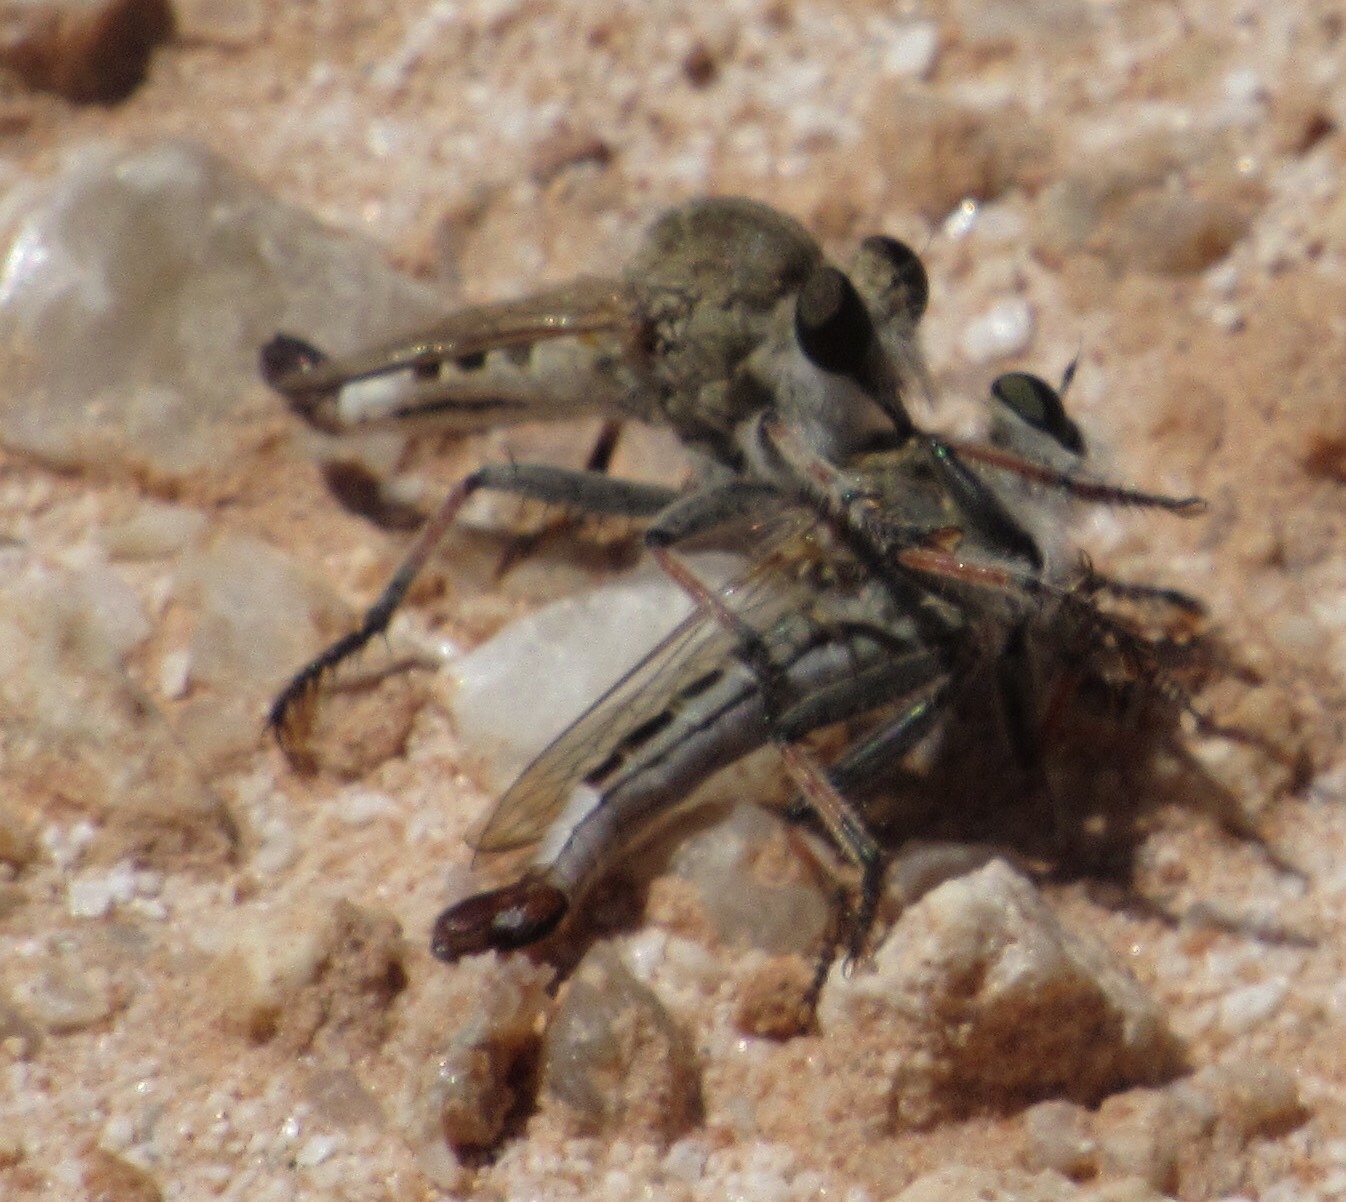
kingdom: Animalia
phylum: Arthropoda
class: Insecta
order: Diptera
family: Asilidae
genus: Efferia
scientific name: Efferia albibarbis
